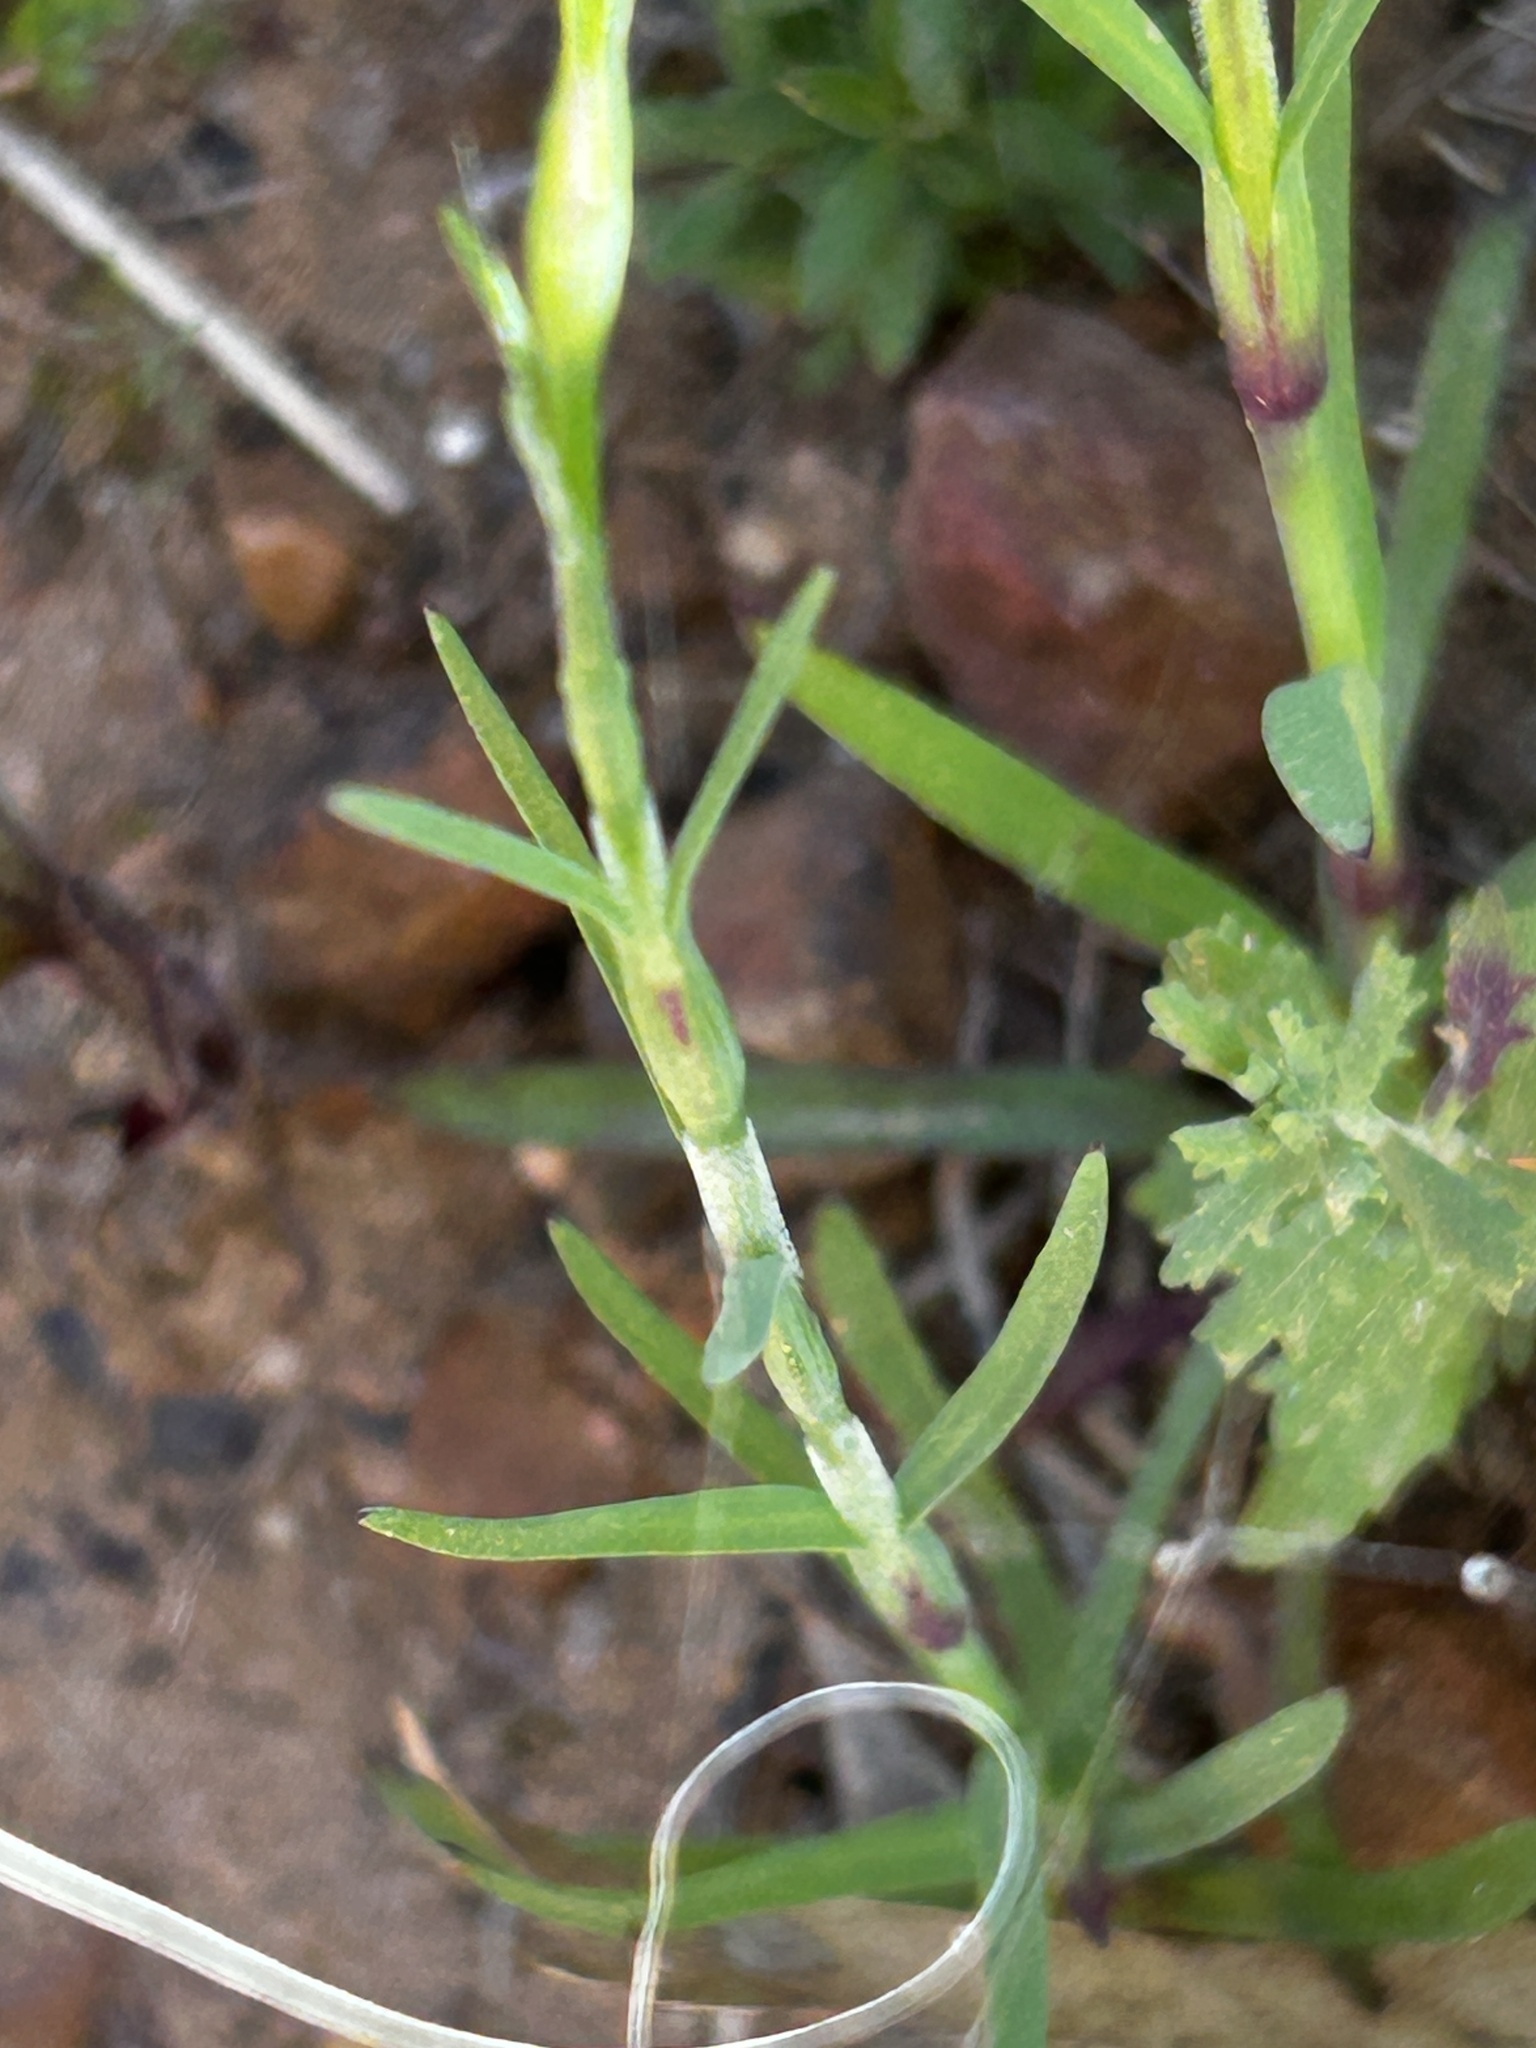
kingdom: Plantae
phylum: Tracheophyta
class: Magnoliopsida
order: Caryophyllales
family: Caryophyllaceae
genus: Petrorhagia
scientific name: Petrorhagia prolifera
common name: Proliferous pink
